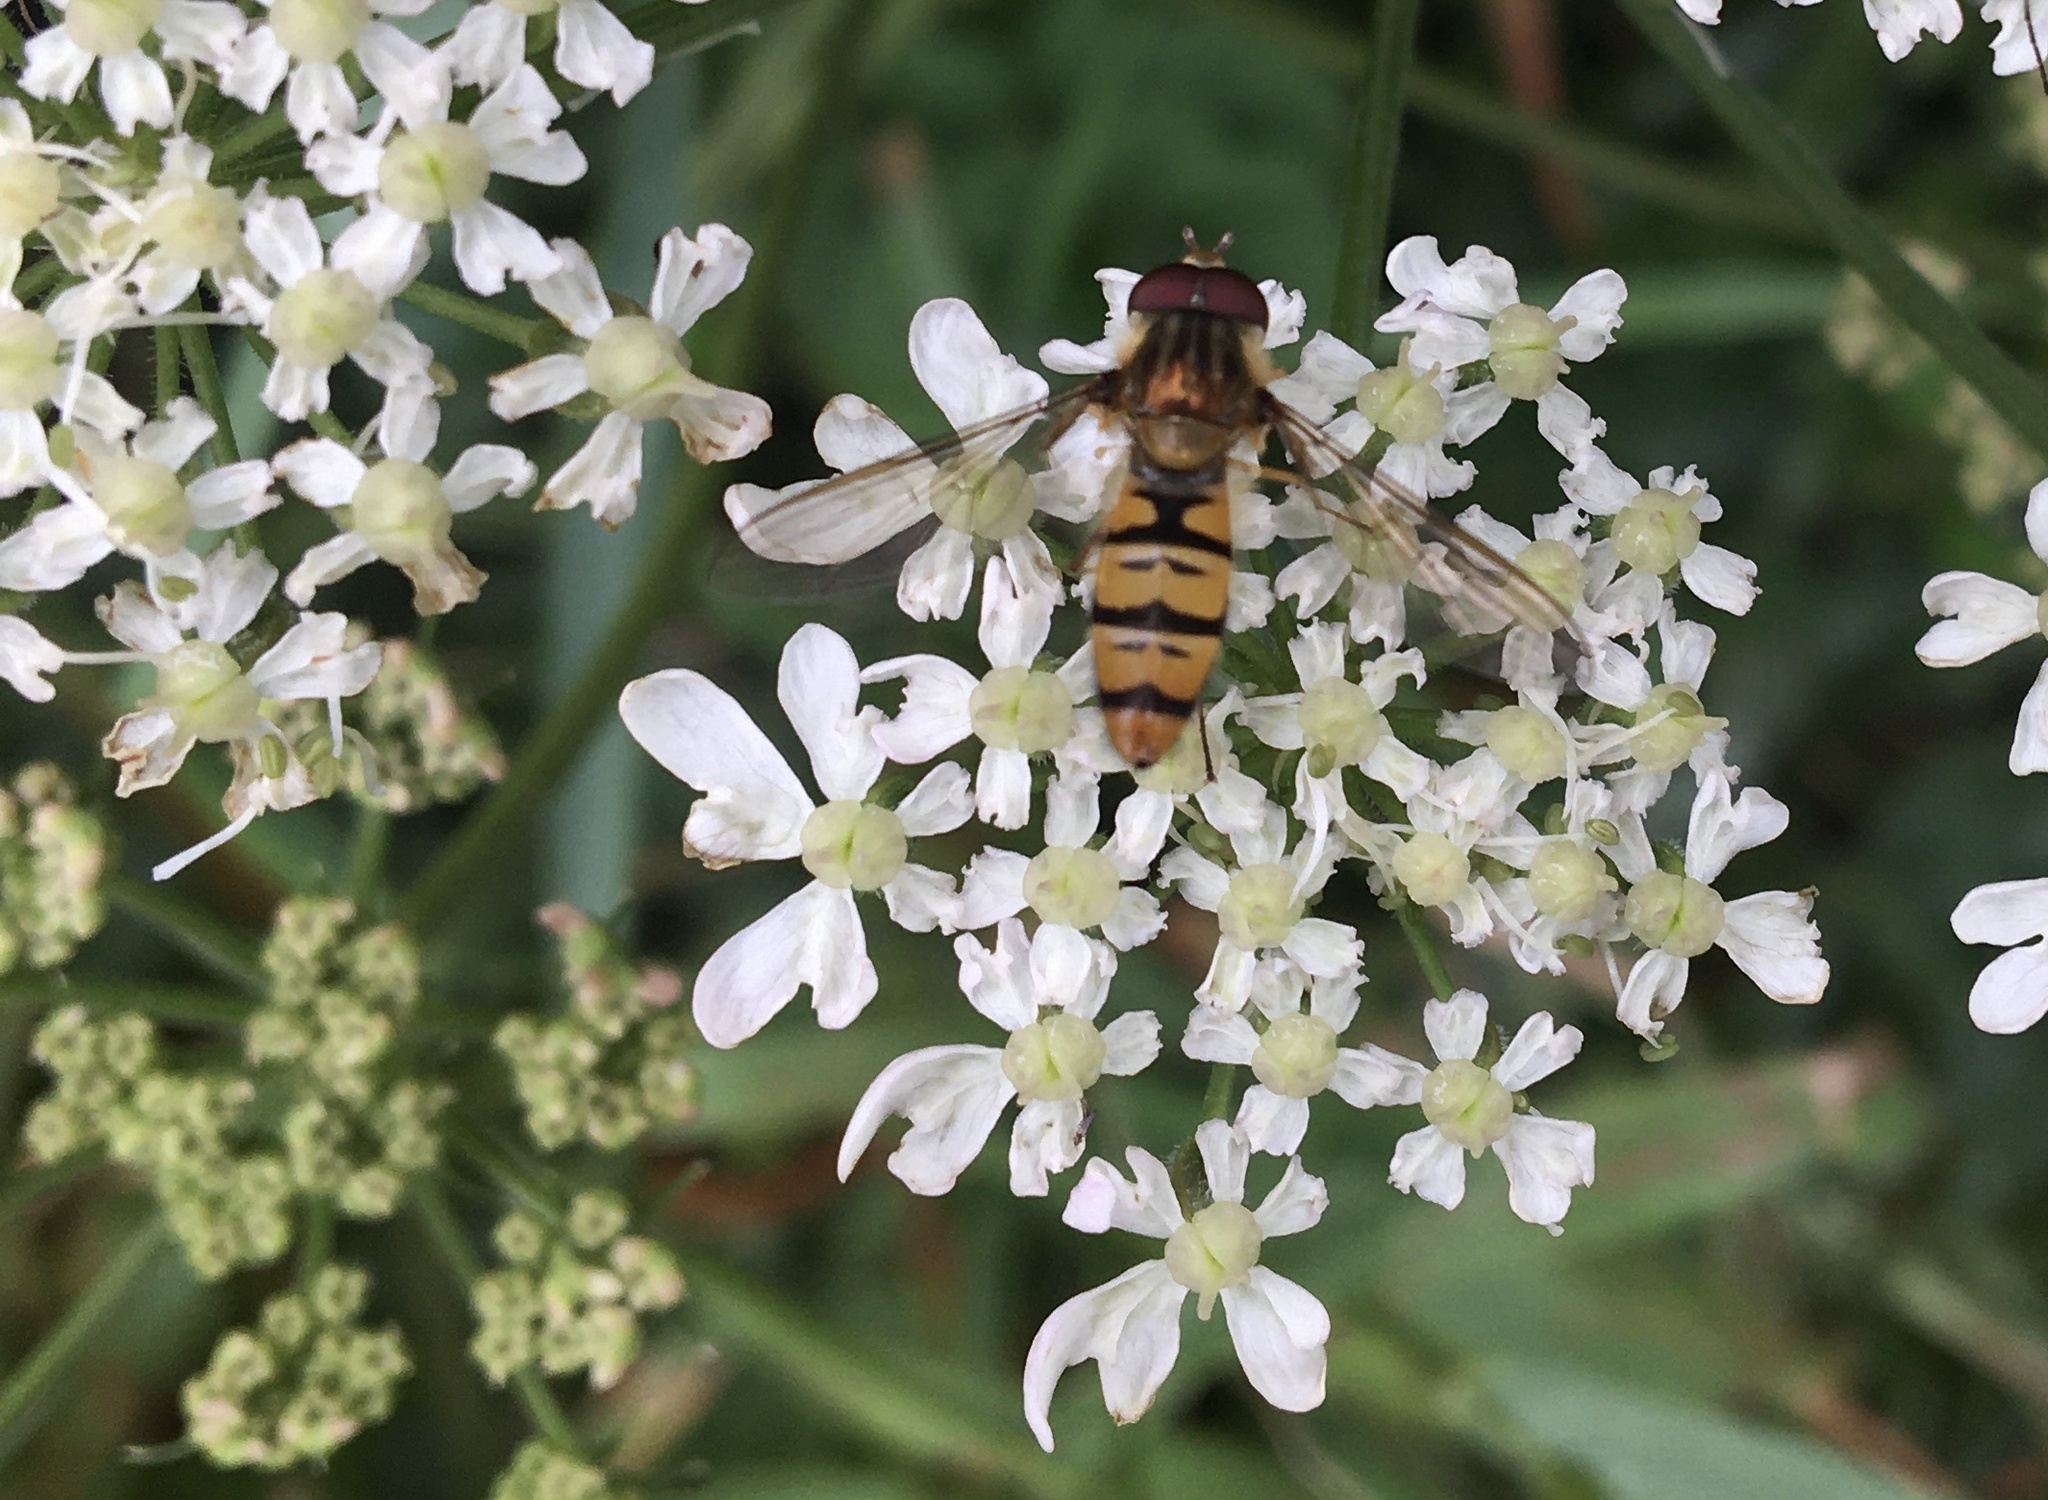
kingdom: Animalia
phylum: Arthropoda
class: Insecta
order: Diptera
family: Syrphidae
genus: Episyrphus
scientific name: Episyrphus balteatus
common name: Marmalade hoverfly
